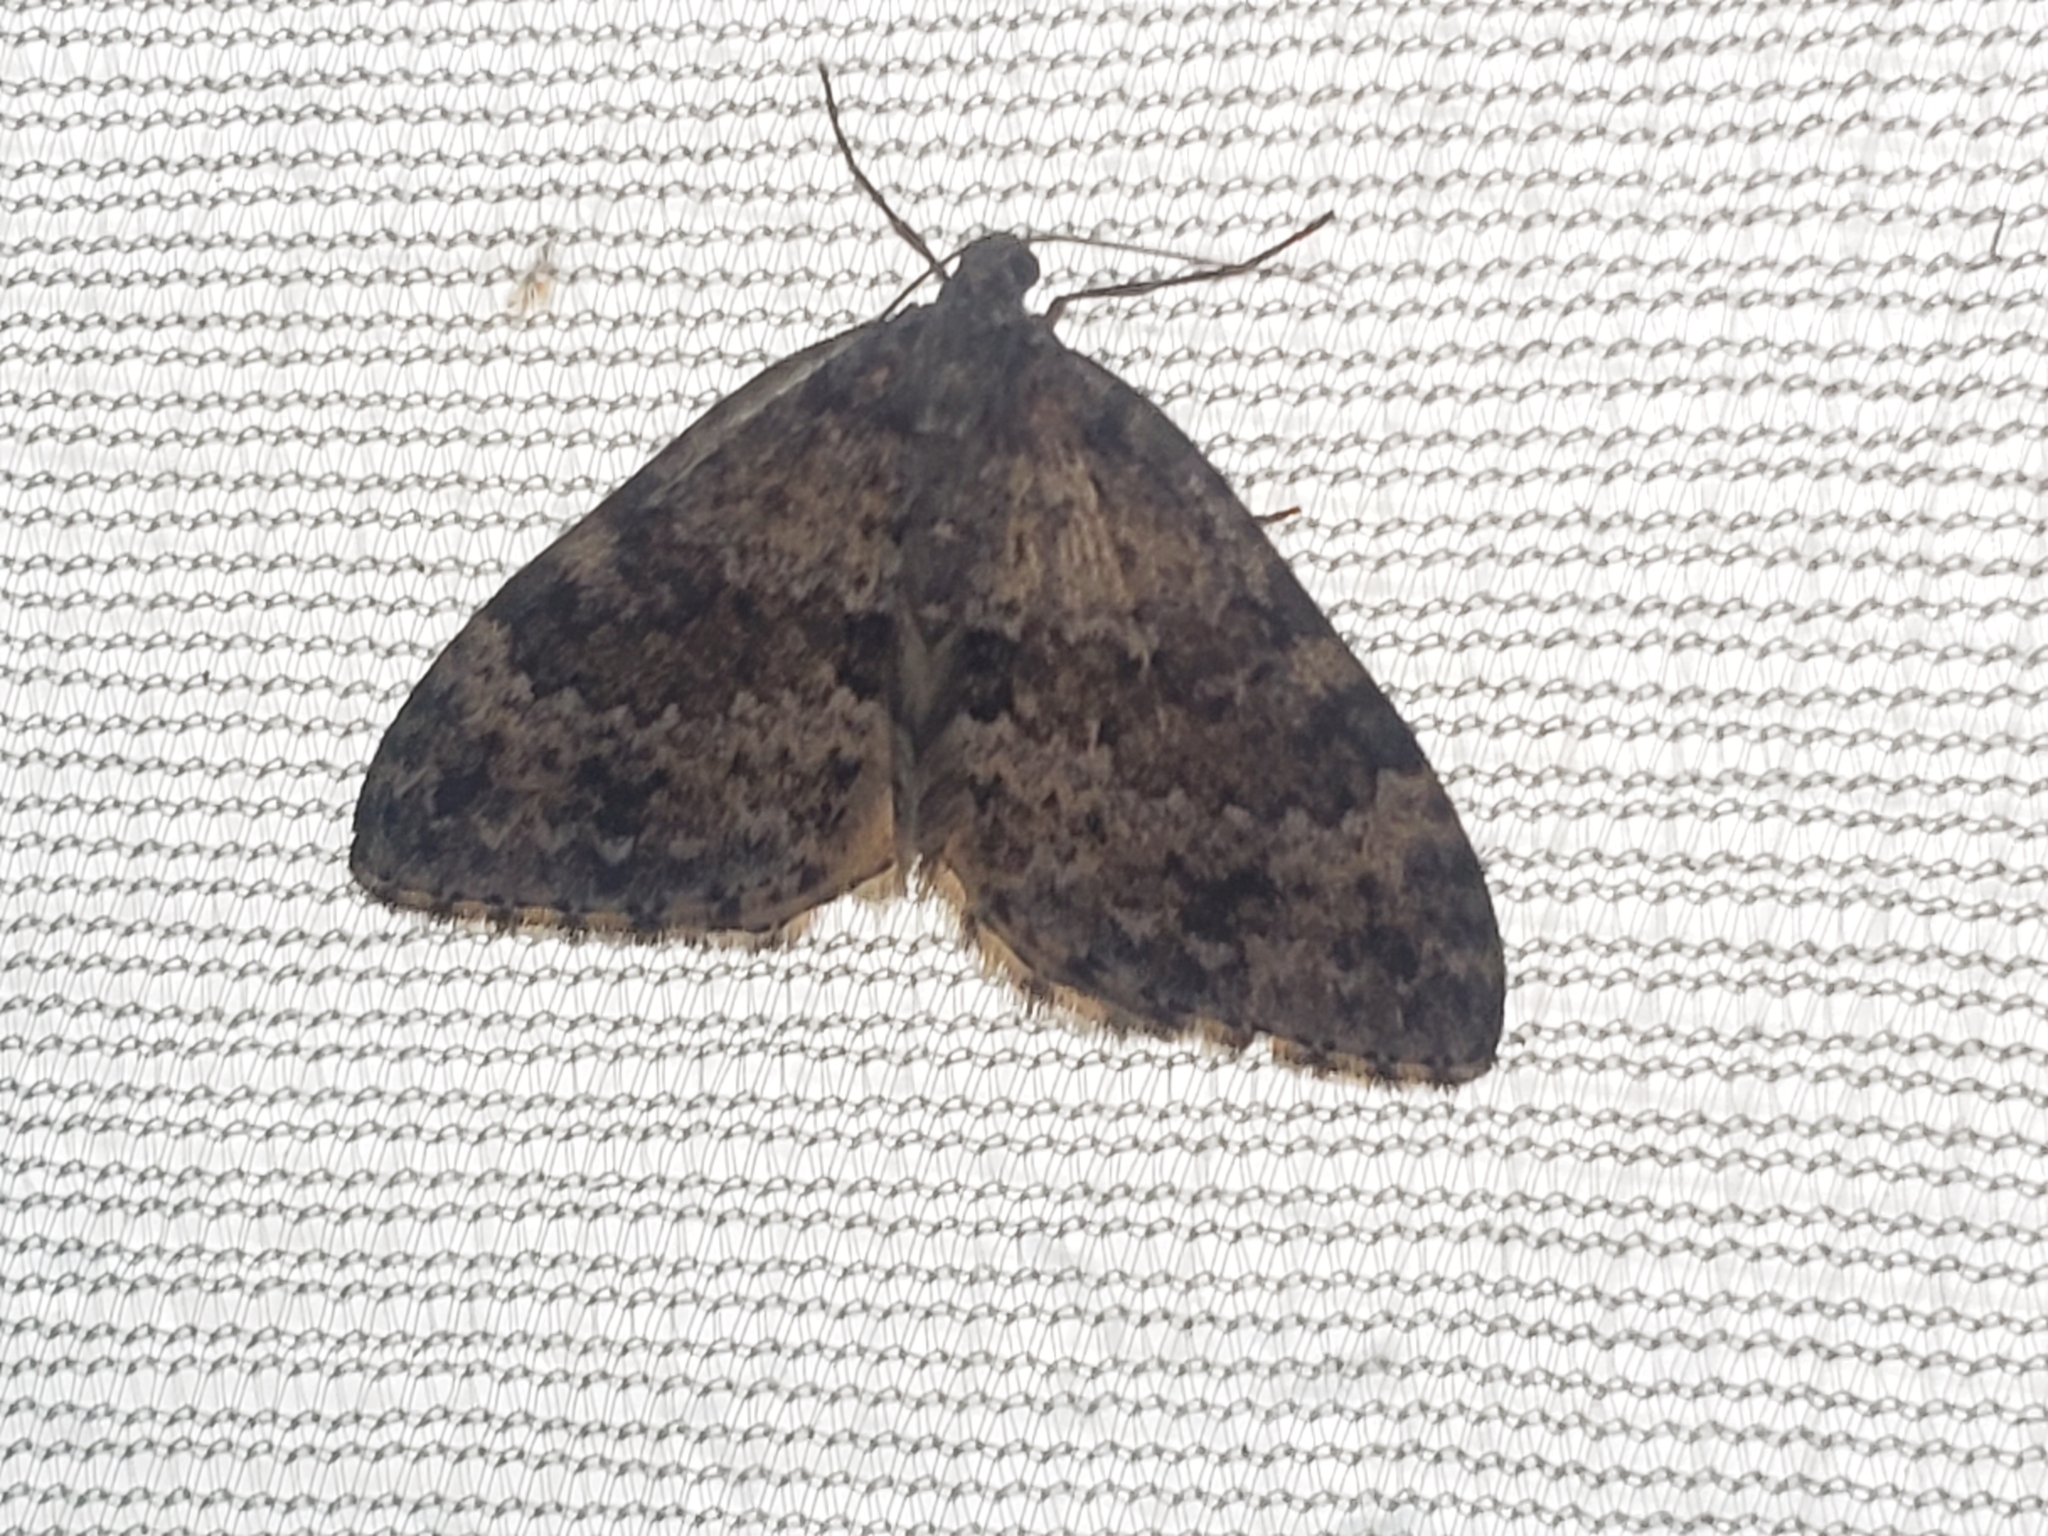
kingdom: Animalia
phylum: Arthropoda
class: Insecta
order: Lepidoptera
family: Geometridae
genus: Entephria
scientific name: Entephria caesiata
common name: Grey mountain moth
